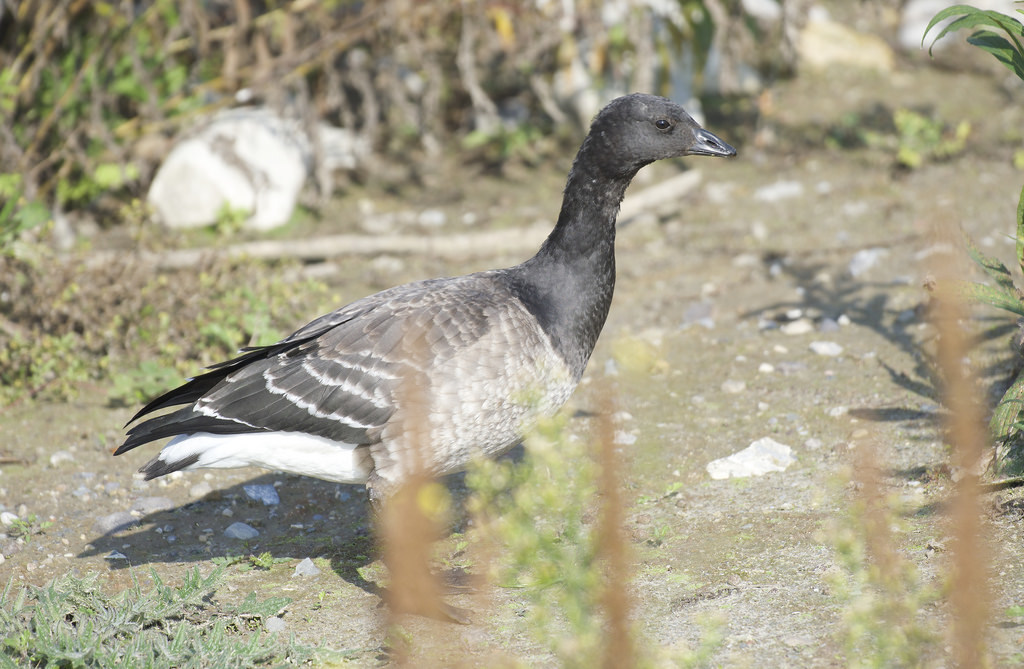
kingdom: Animalia
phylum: Chordata
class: Aves
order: Anseriformes
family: Anatidae
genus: Branta
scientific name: Branta bernicla
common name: Brant goose
